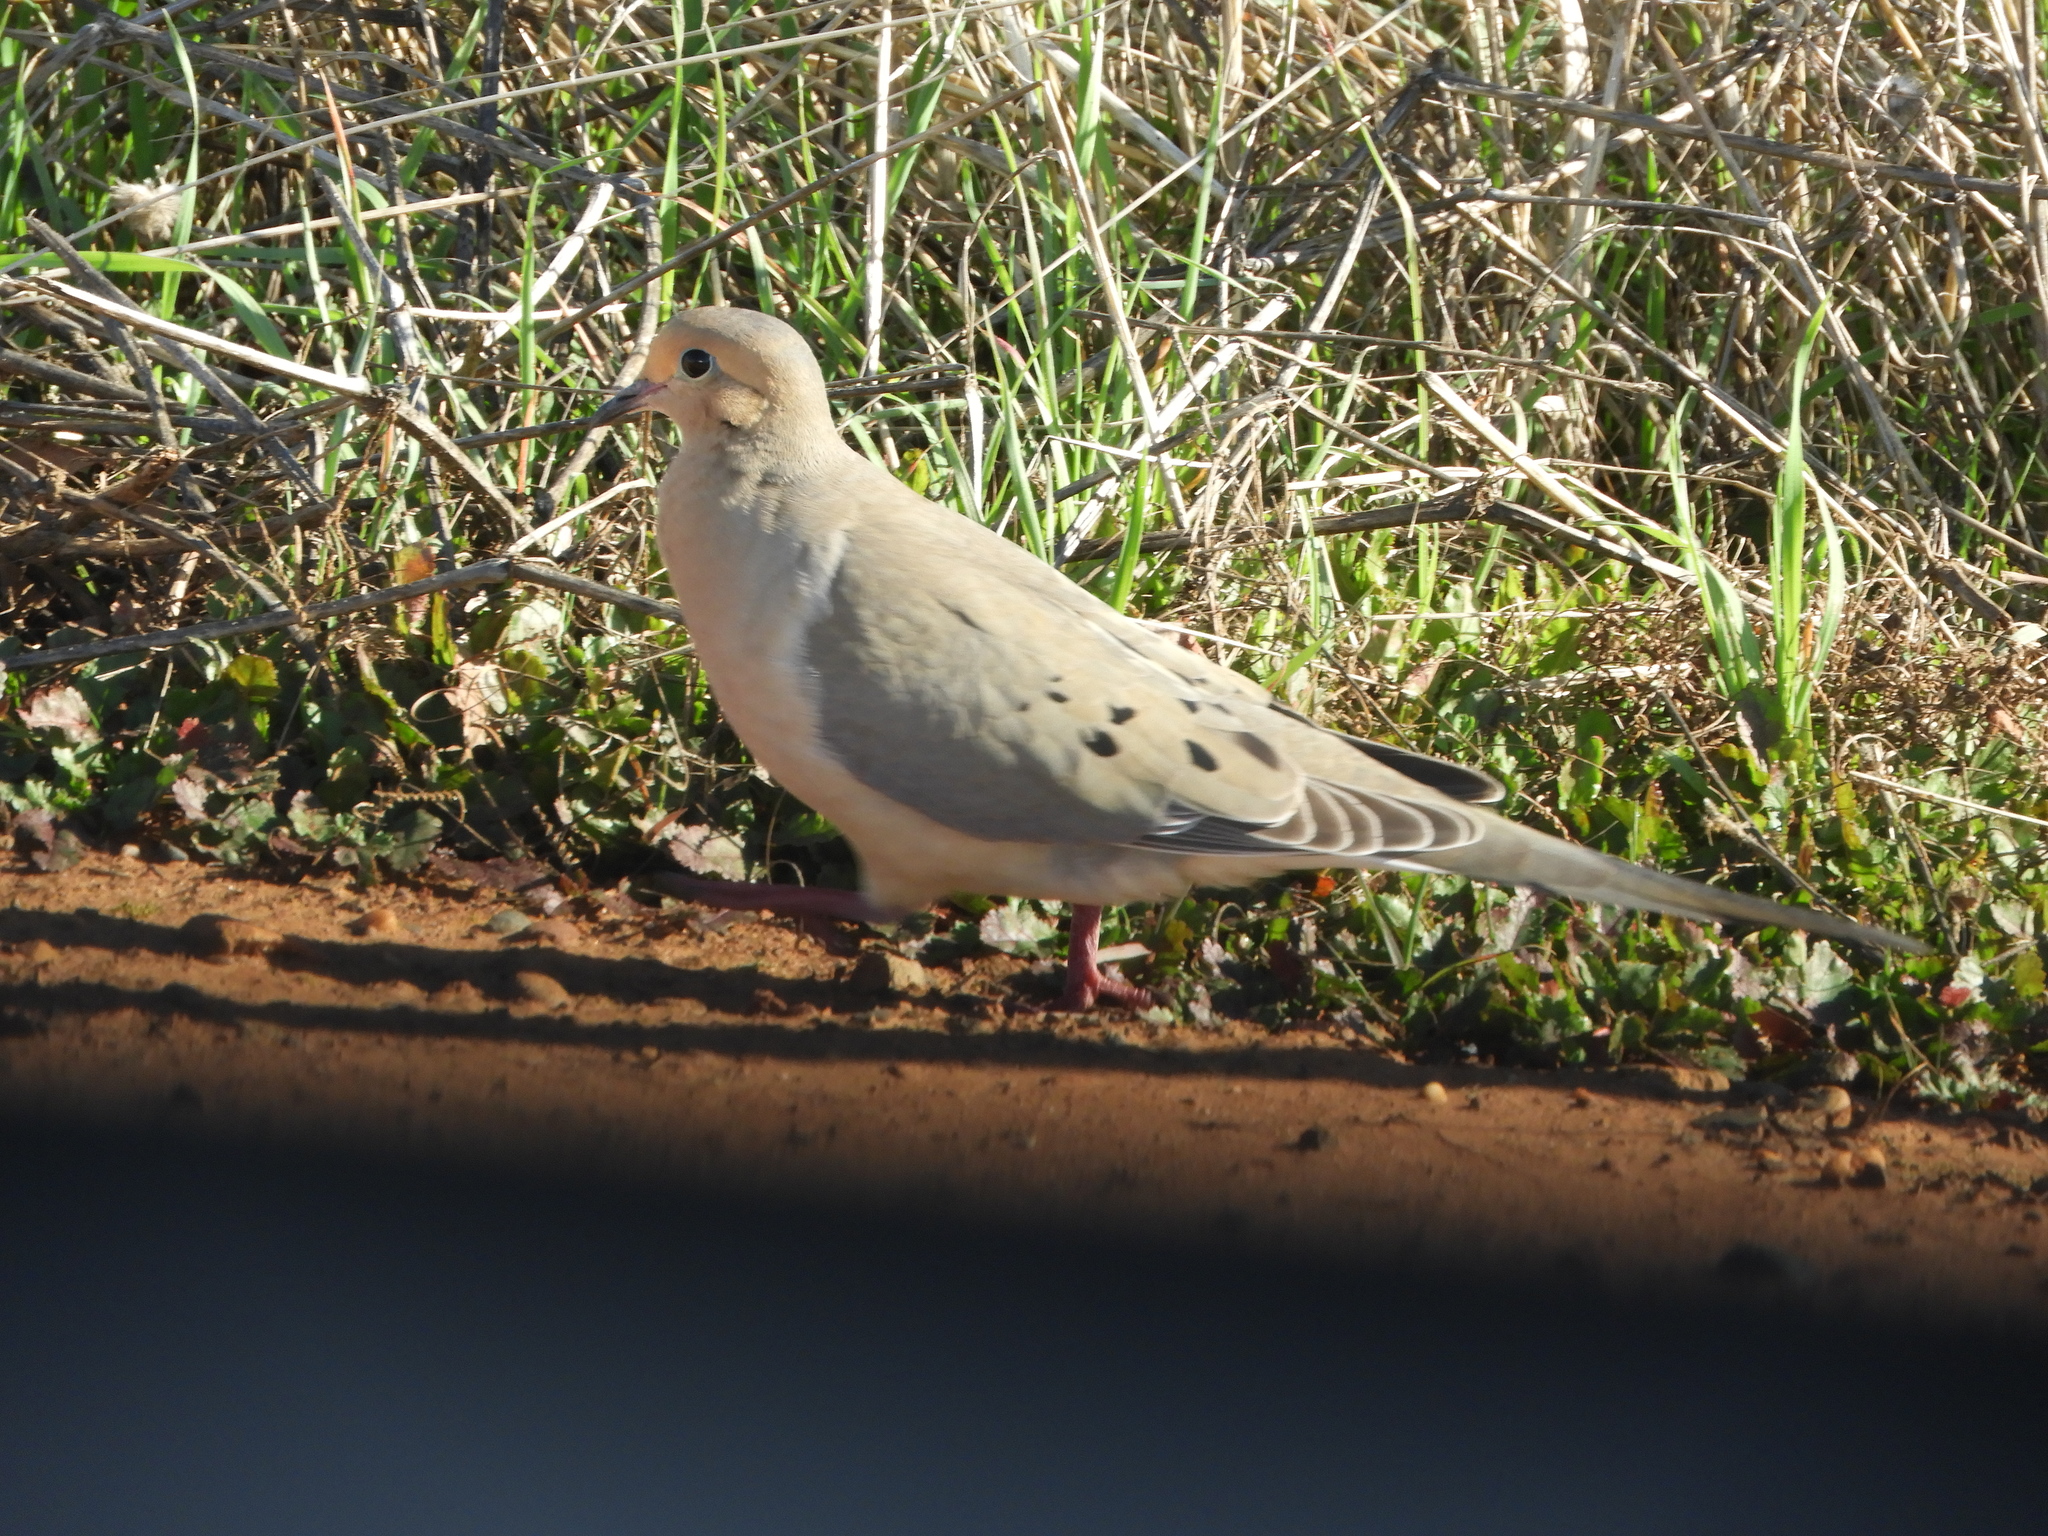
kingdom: Animalia
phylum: Chordata
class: Aves
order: Columbiformes
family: Columbidae
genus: Zenaida
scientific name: Zenaida macroura
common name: Mourning dove
